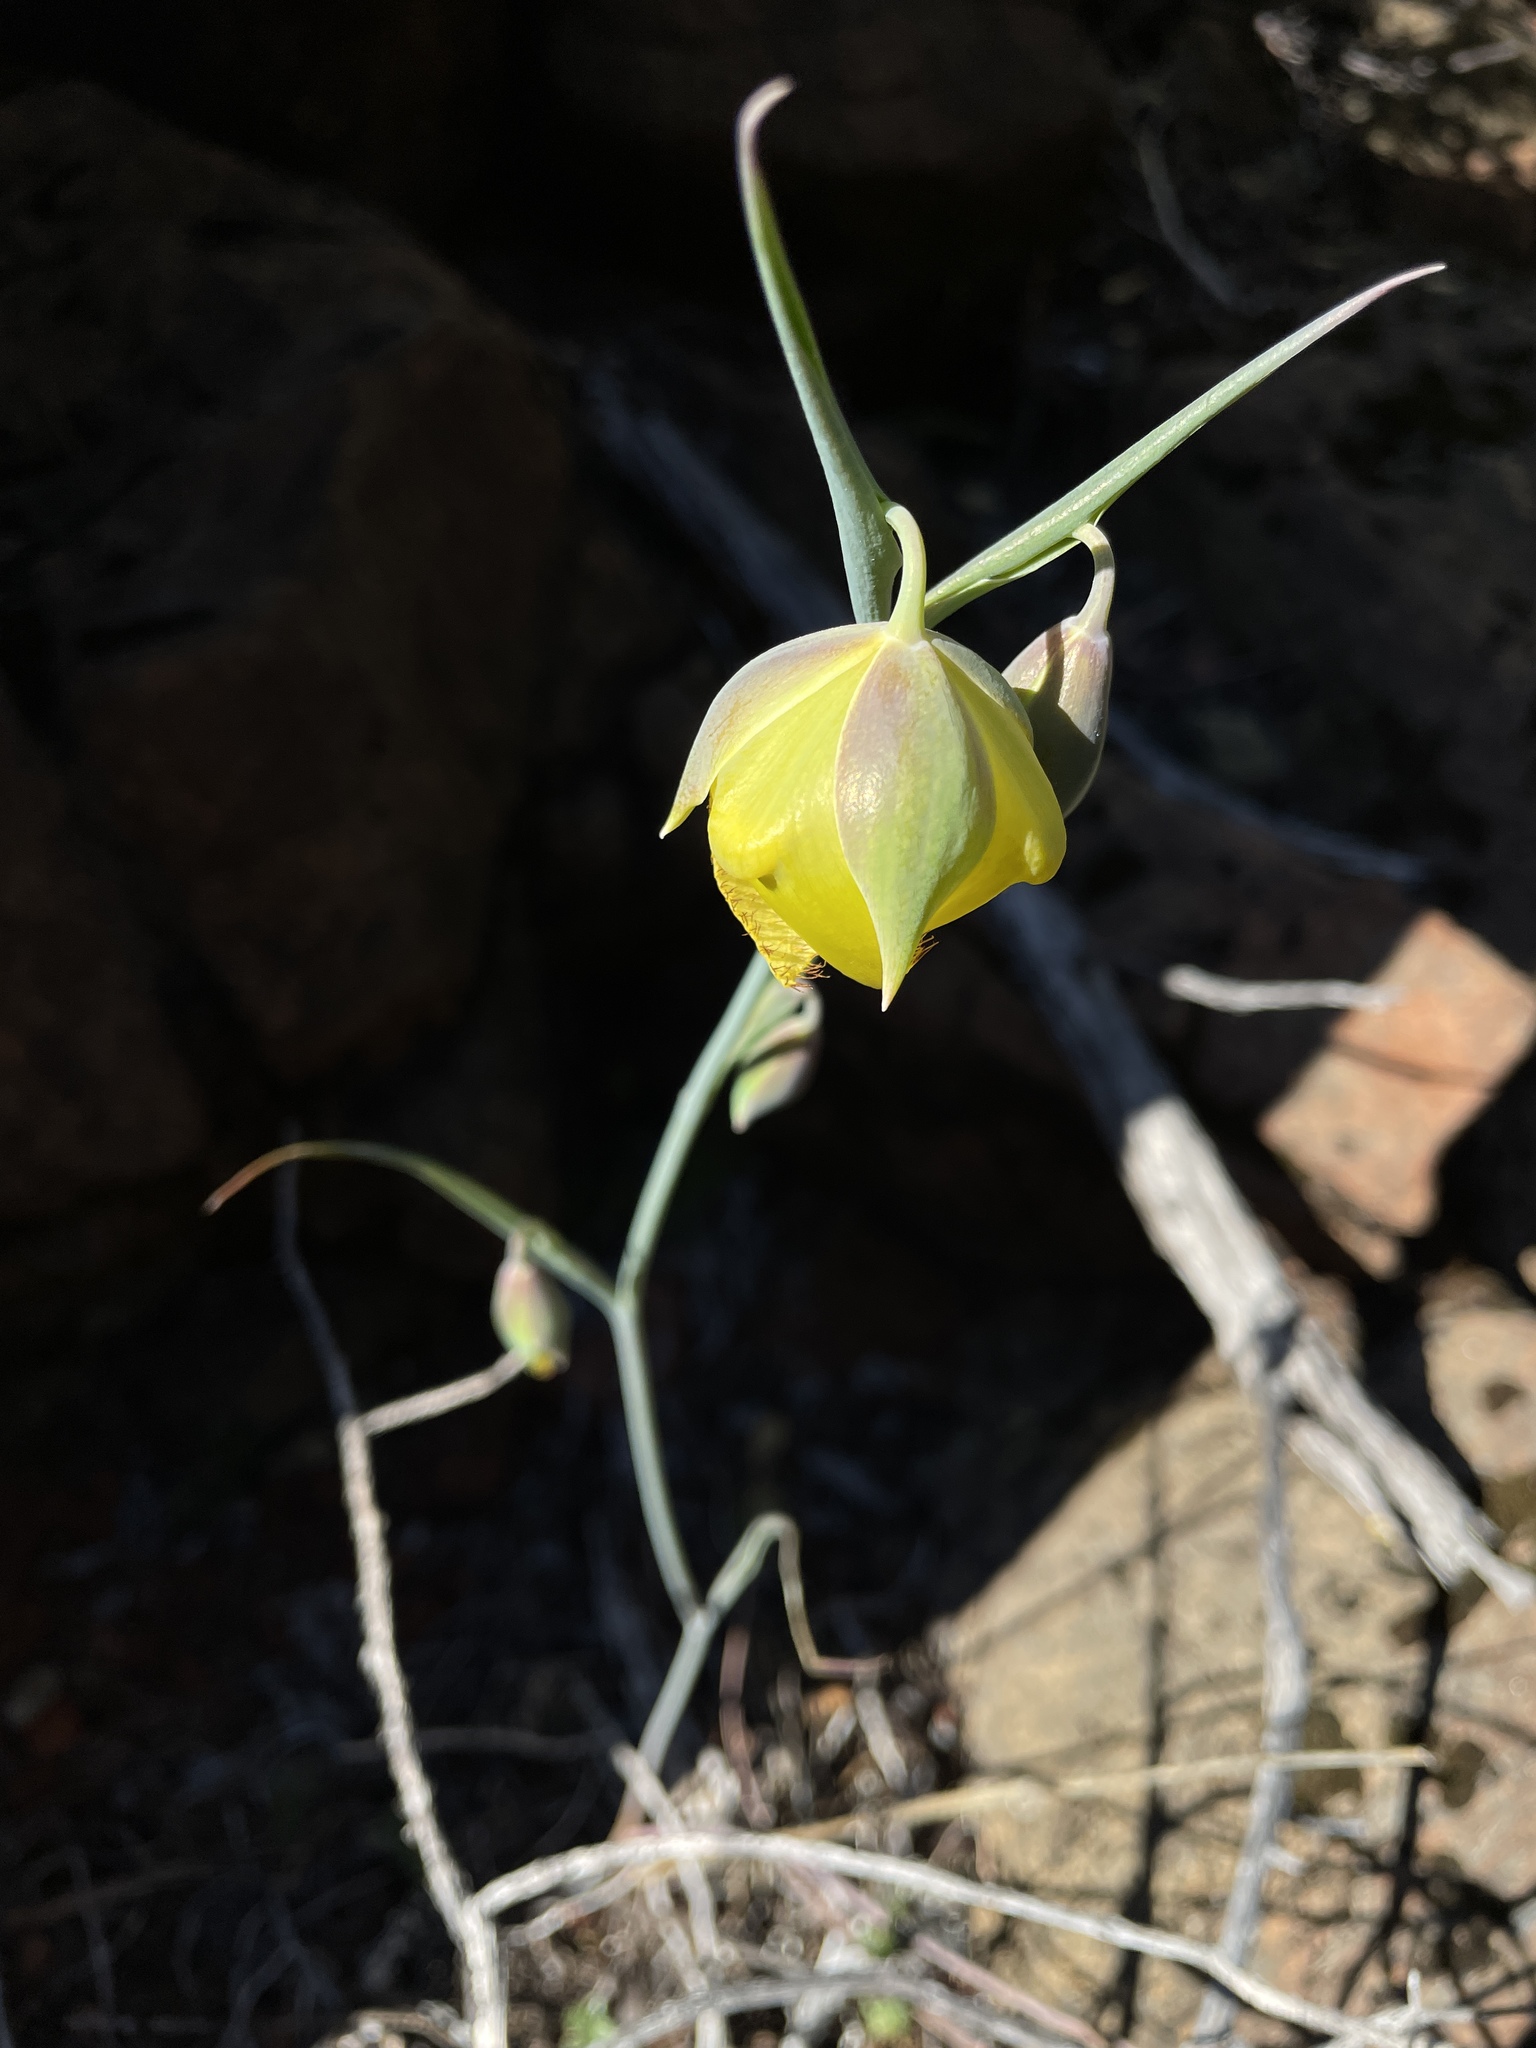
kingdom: Plantae
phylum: Tracheophyta
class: Liliopsida
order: Liliales
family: Liliaceae
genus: Calochortus
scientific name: Calochortus raichei
